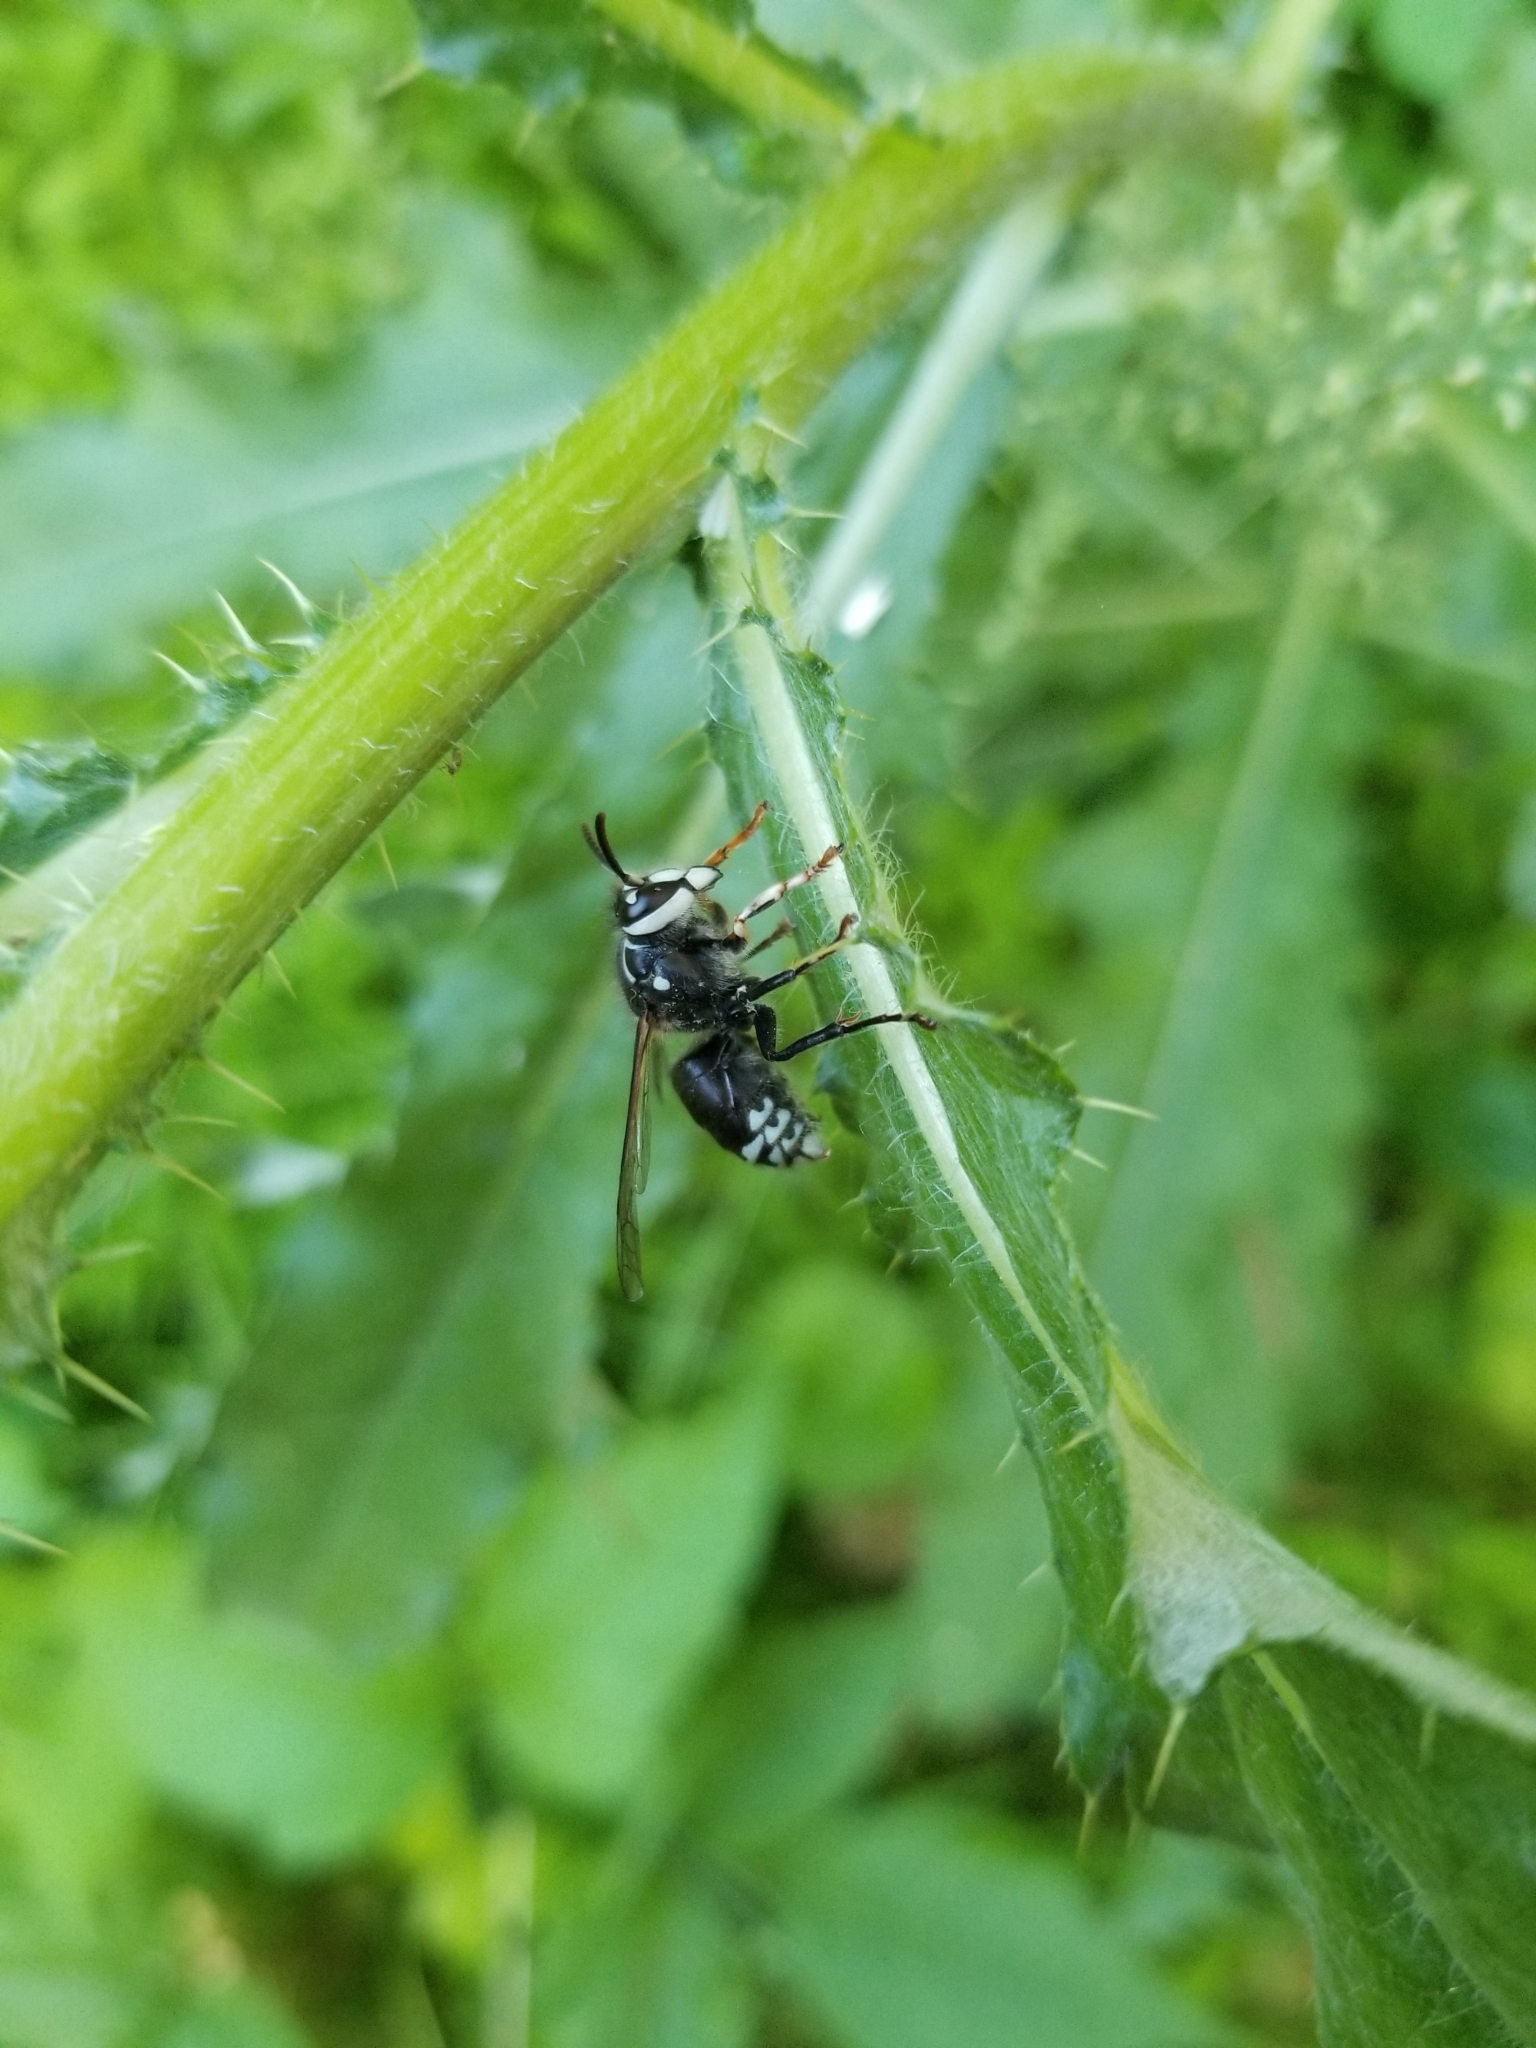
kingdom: Animalia
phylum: Arthropoda
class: Insecta
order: Hymenoptera
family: Vespidae
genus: Dolichovespula
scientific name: Dolichovespula maculata
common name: Bald-faced hornet
